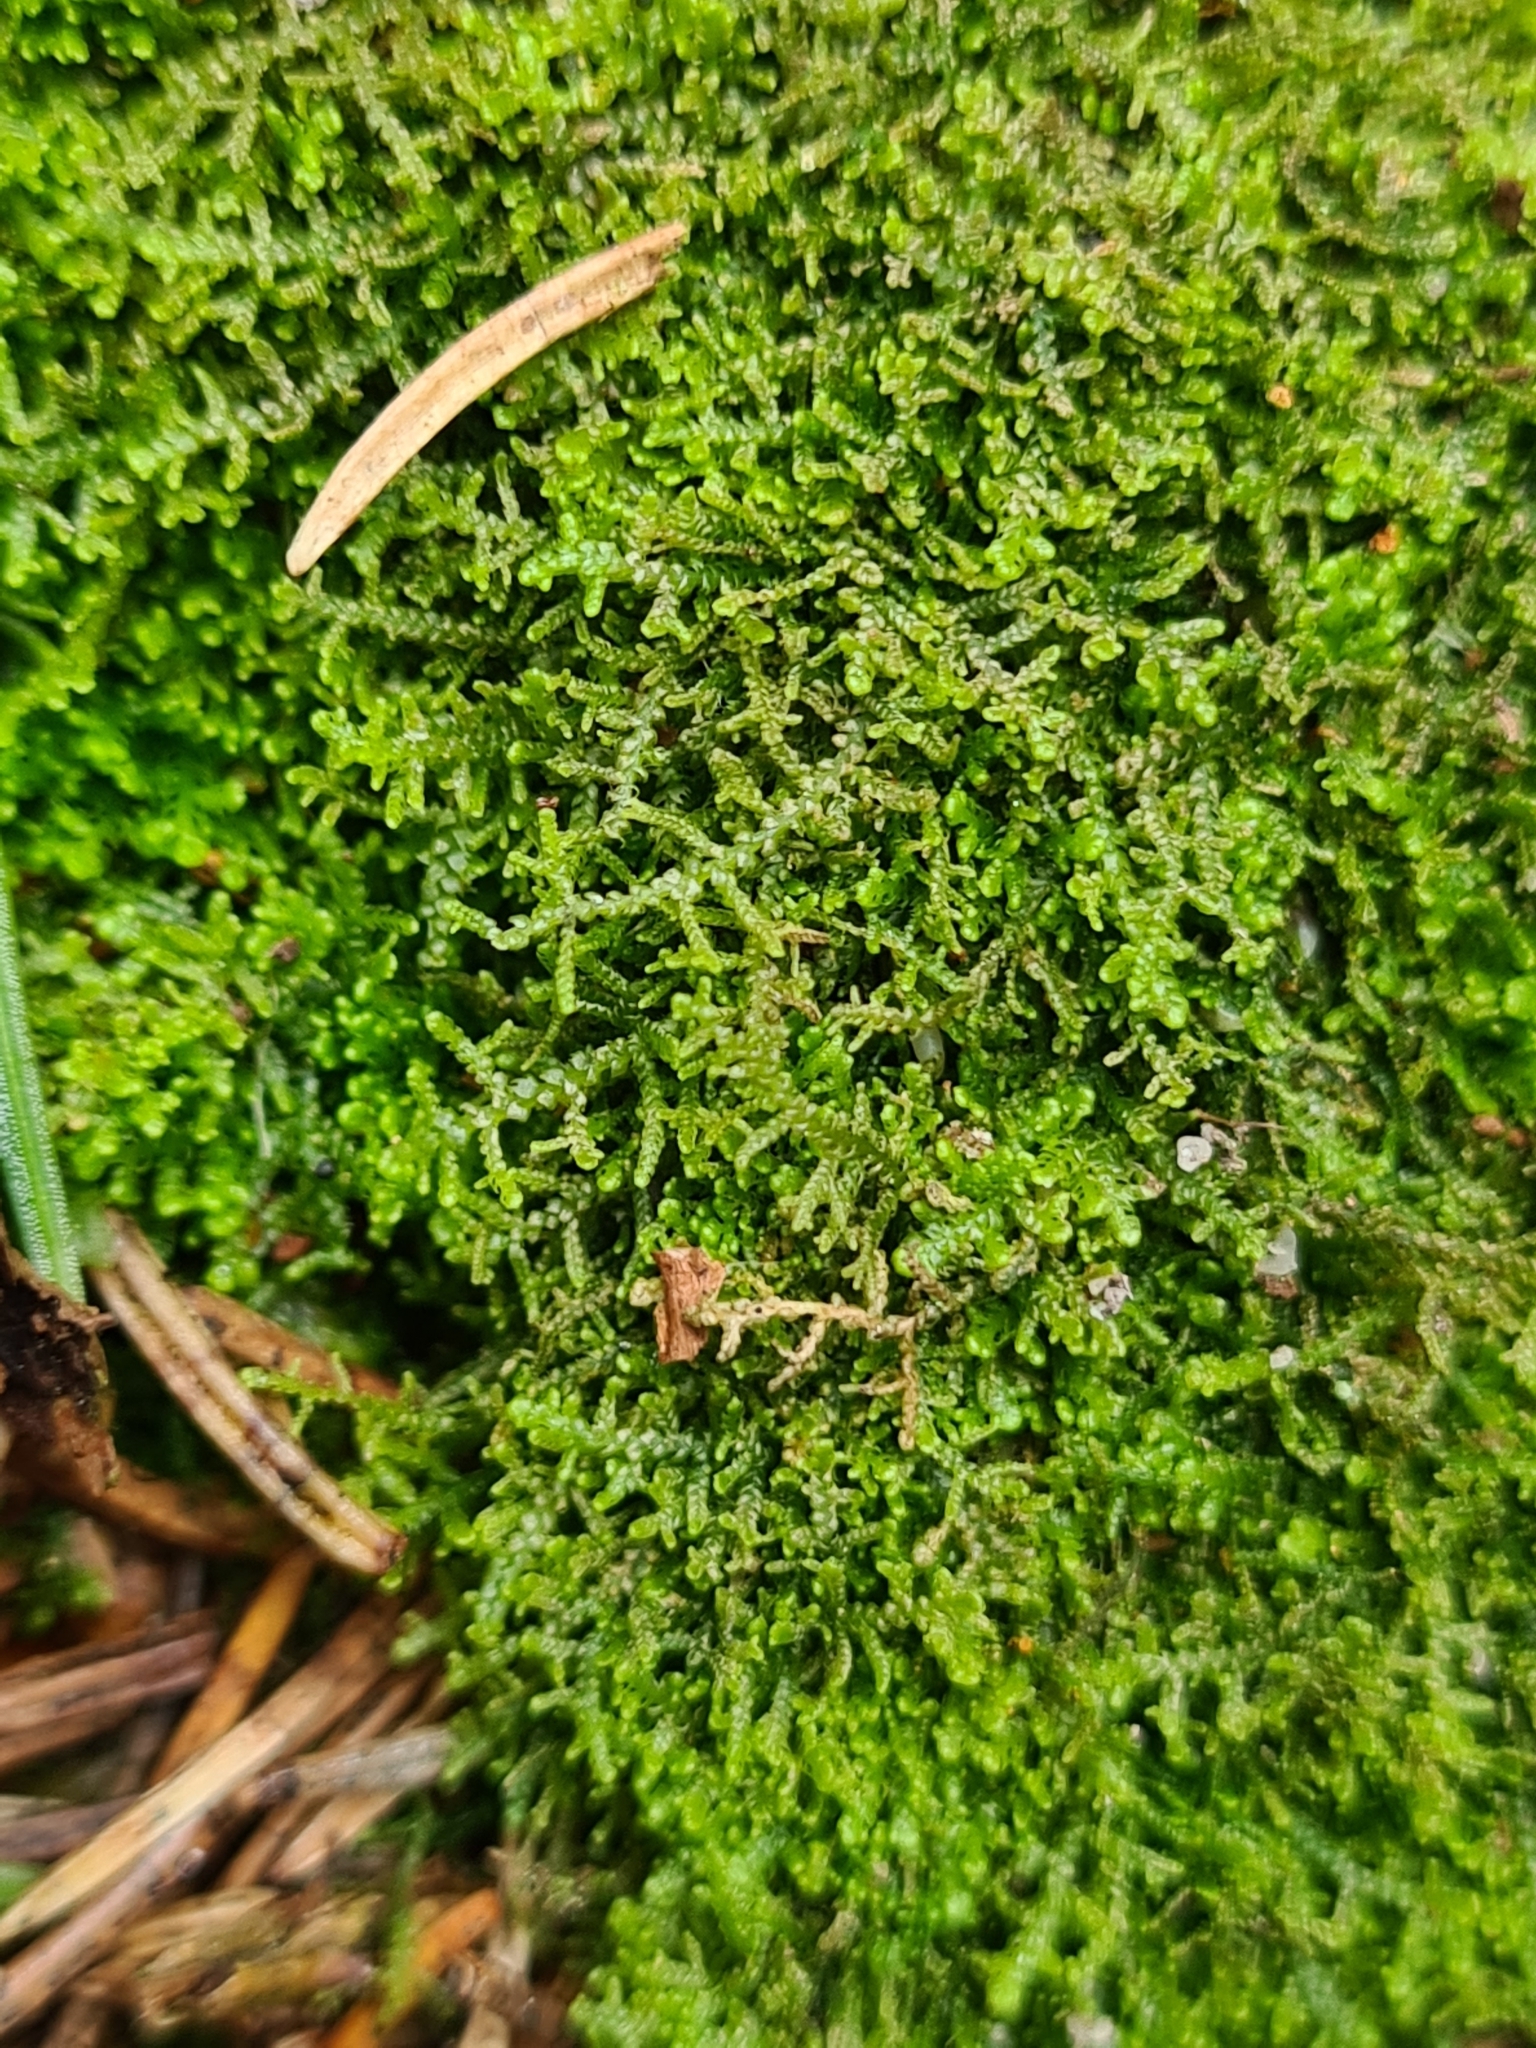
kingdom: Plantae
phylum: Marchantiophyta
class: Jungermanniopsida
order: Jungermanniales
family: Lepidoziaceae
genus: Lepidozia
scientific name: Lepidozia reptans
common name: Creeping fingerwort
